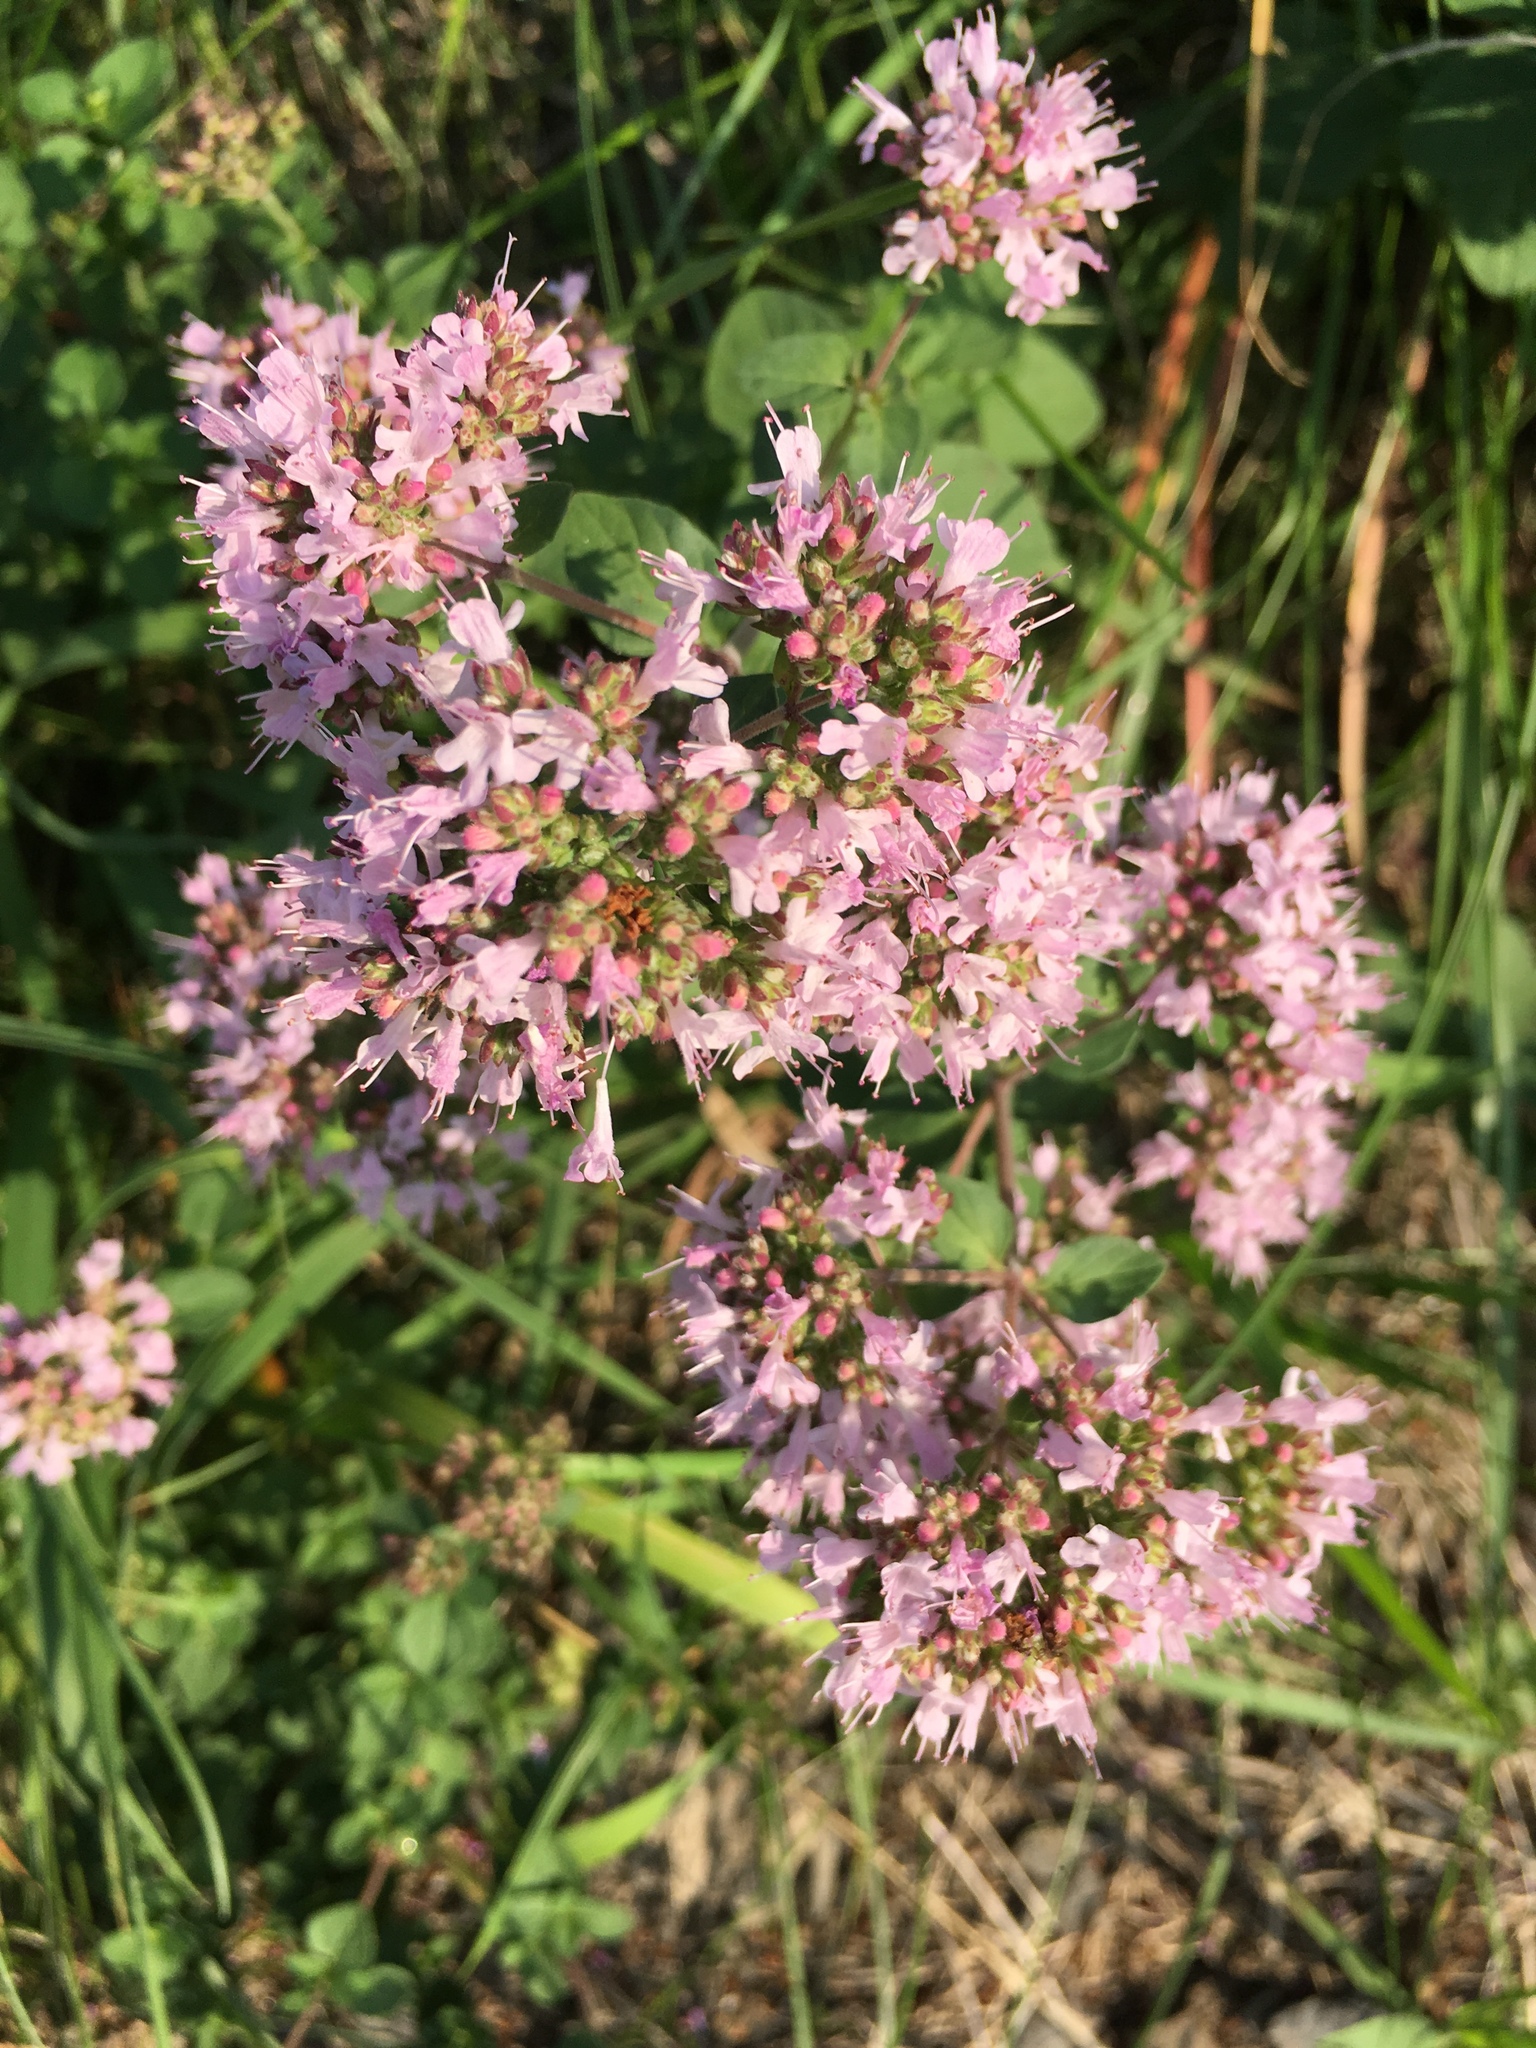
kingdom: Plantae
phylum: Tracheophyta
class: Magnoliopsida
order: Lamiales
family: Lamiaceae
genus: Origanum
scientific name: Origanum vulgare
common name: Wild marjoram
